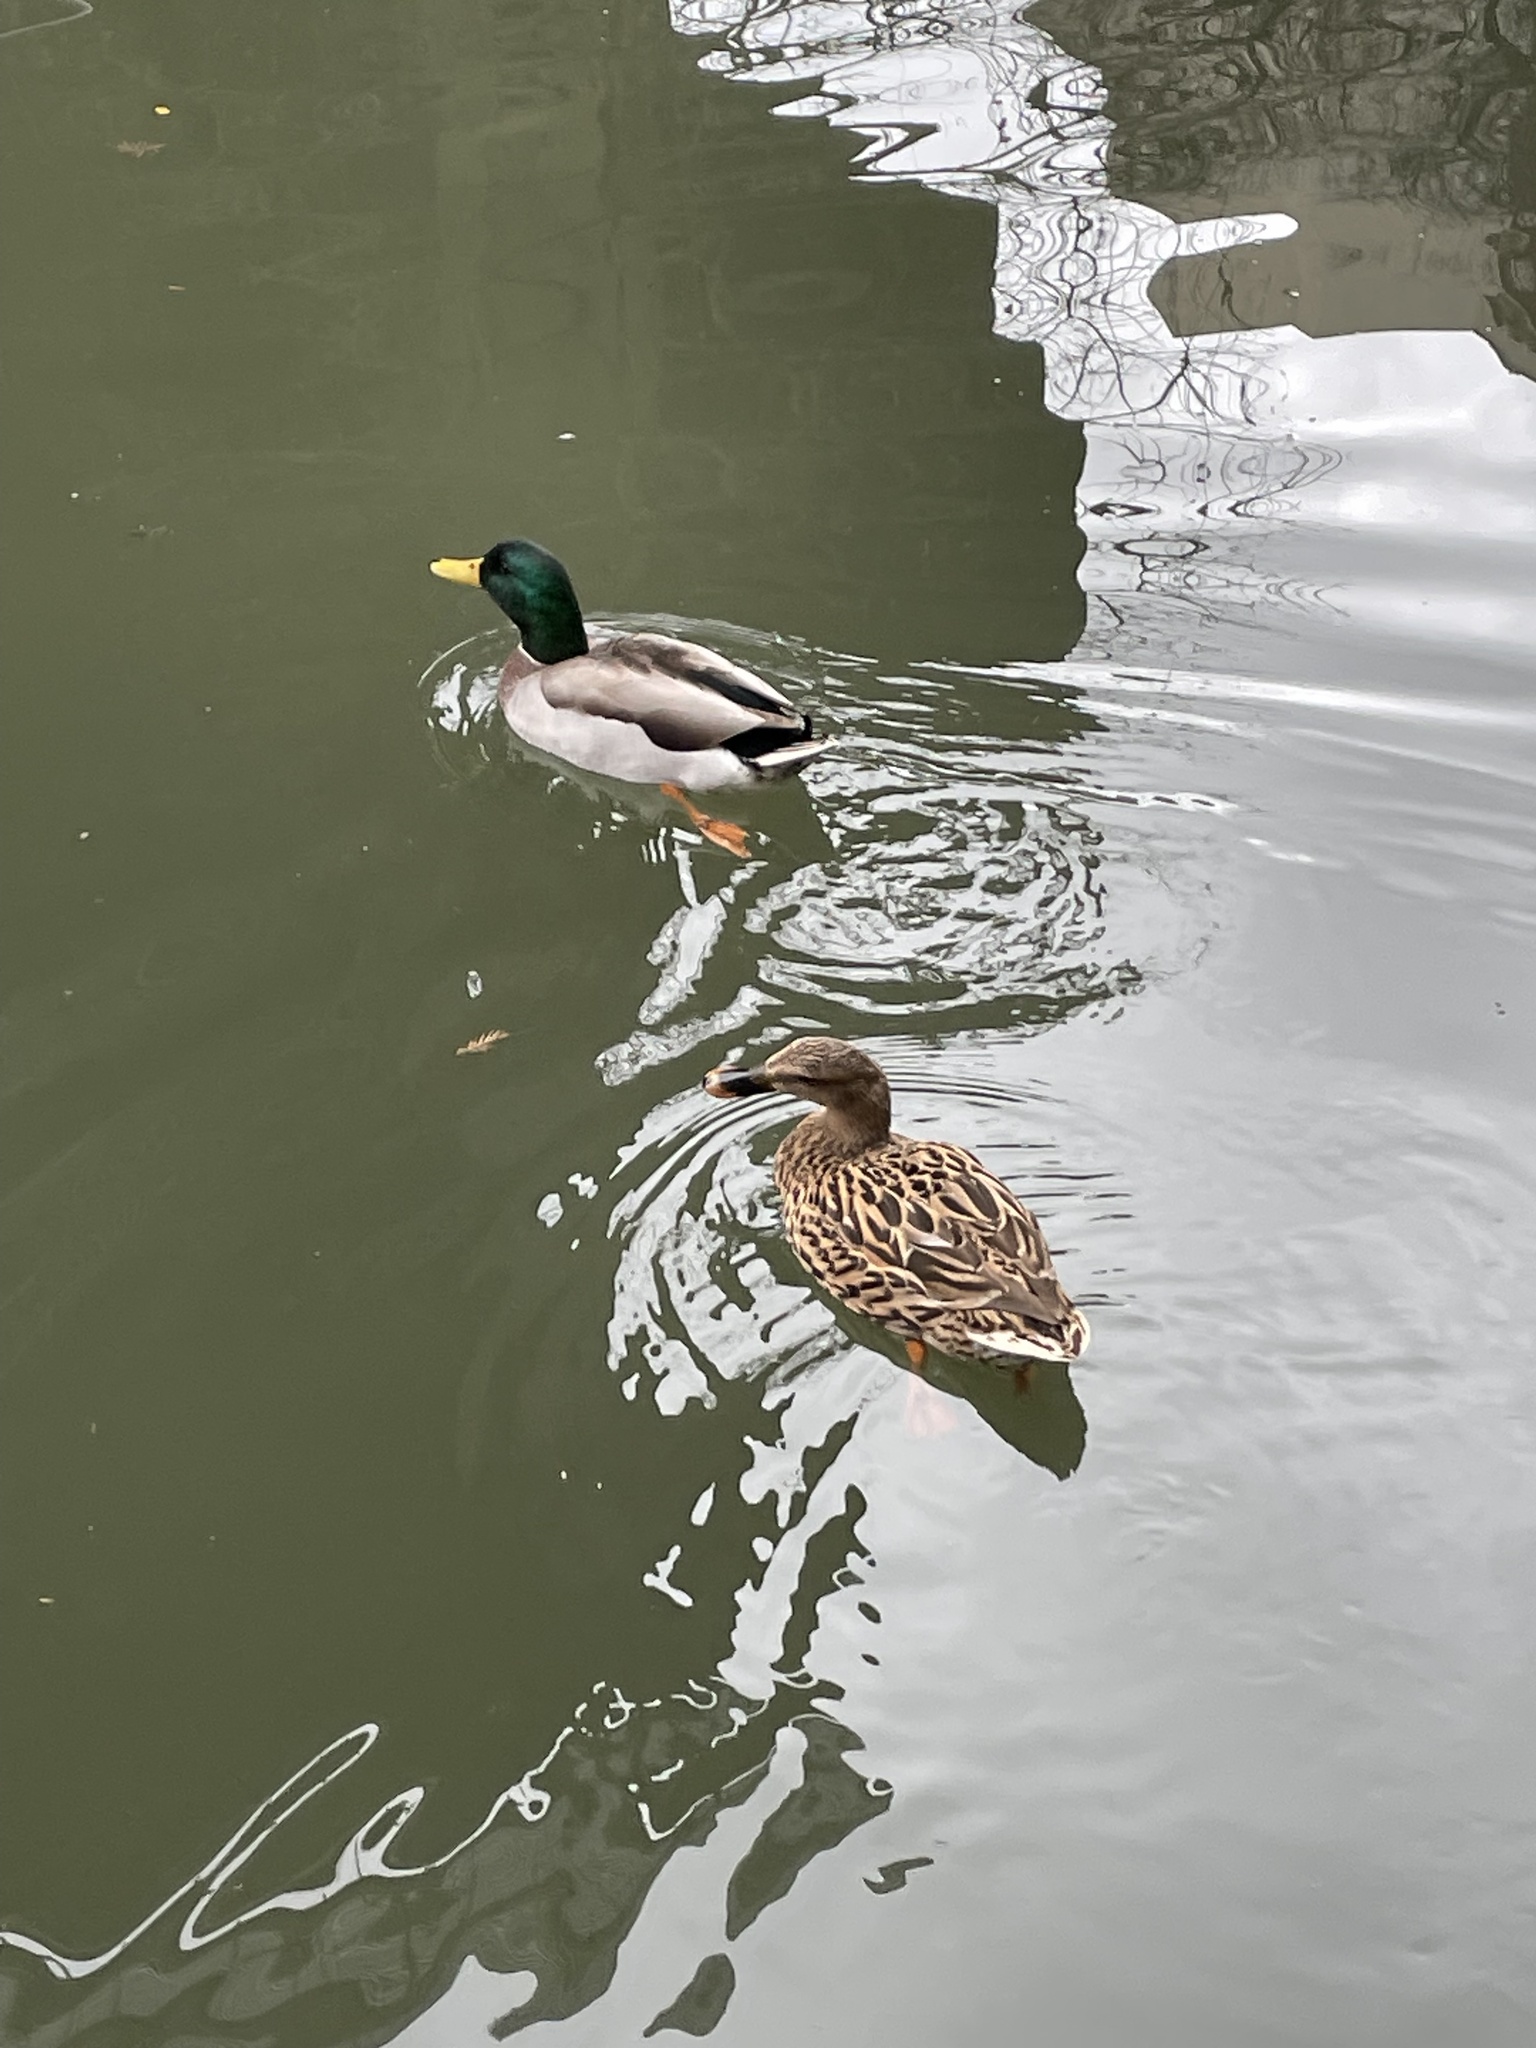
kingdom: Animalia
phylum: Chordata
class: Aves
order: Anseriformes
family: Anatidae
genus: Anas
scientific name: Anas platyrhynchos
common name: Mallard
